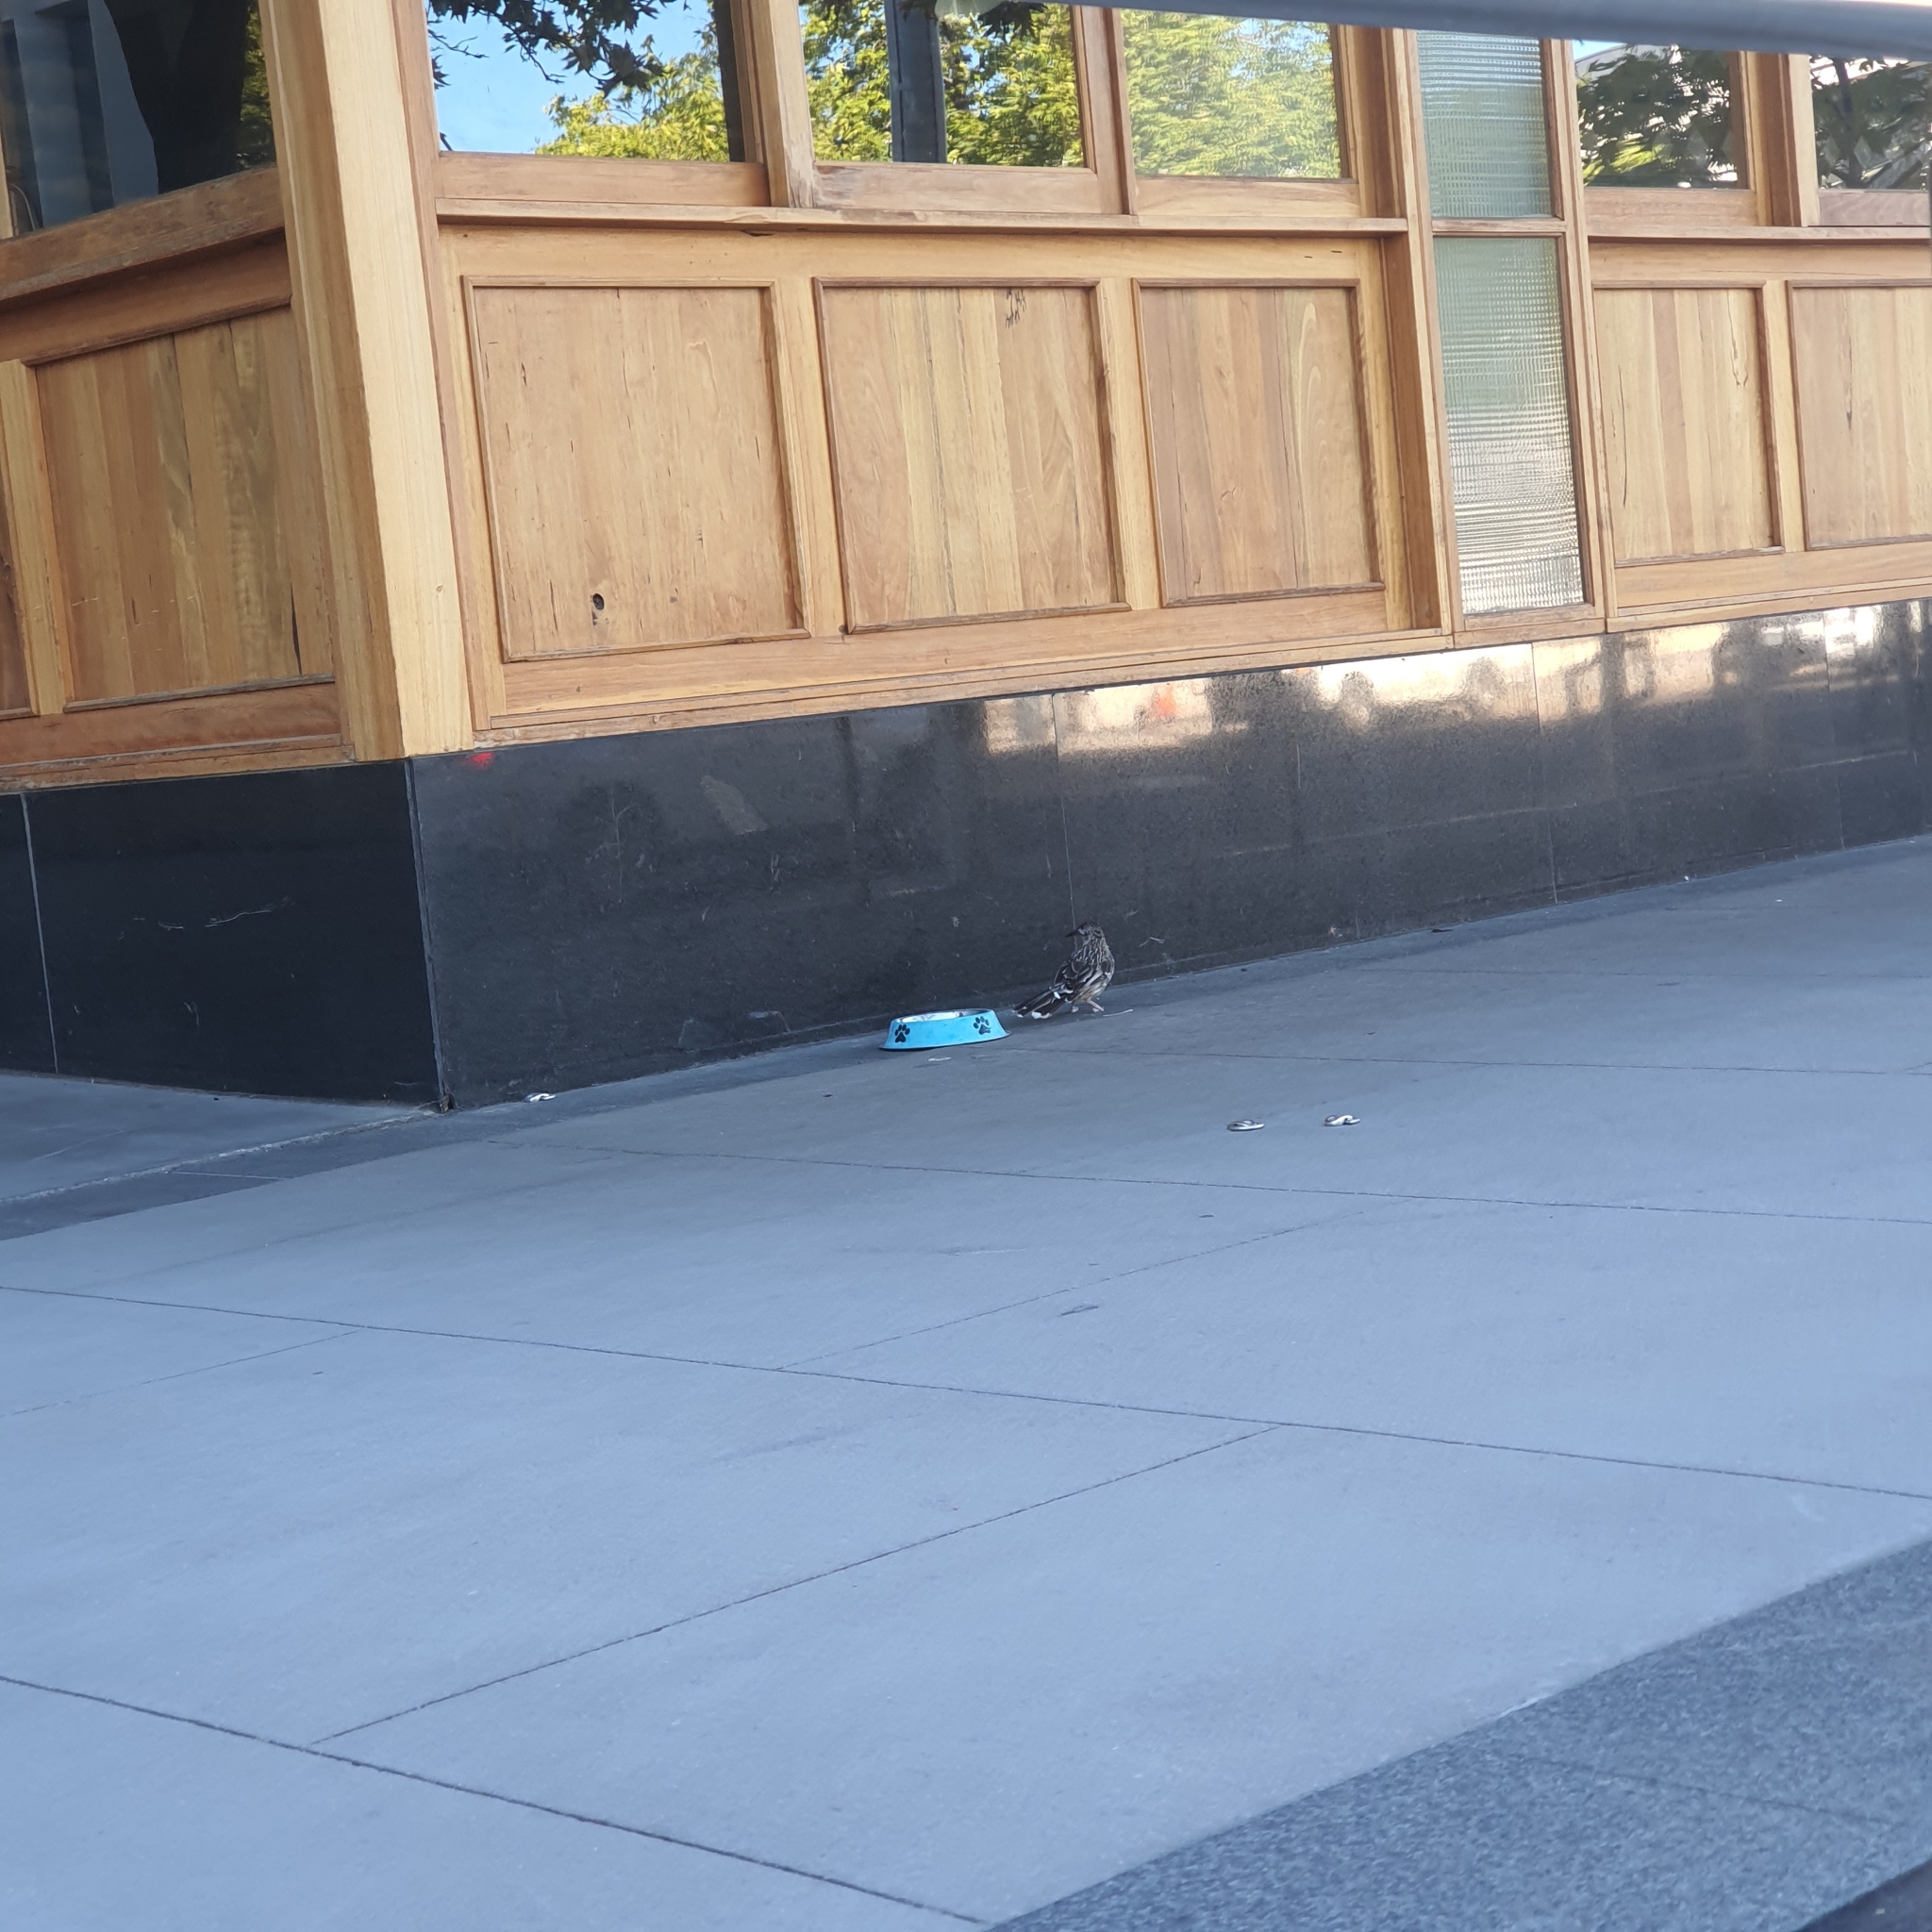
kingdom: Animalia
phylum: Chordata
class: Aves
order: Passeriformes
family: Meliphagidae
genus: Anthochaera
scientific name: Anthochaera carunculata
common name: Red wattlebird
